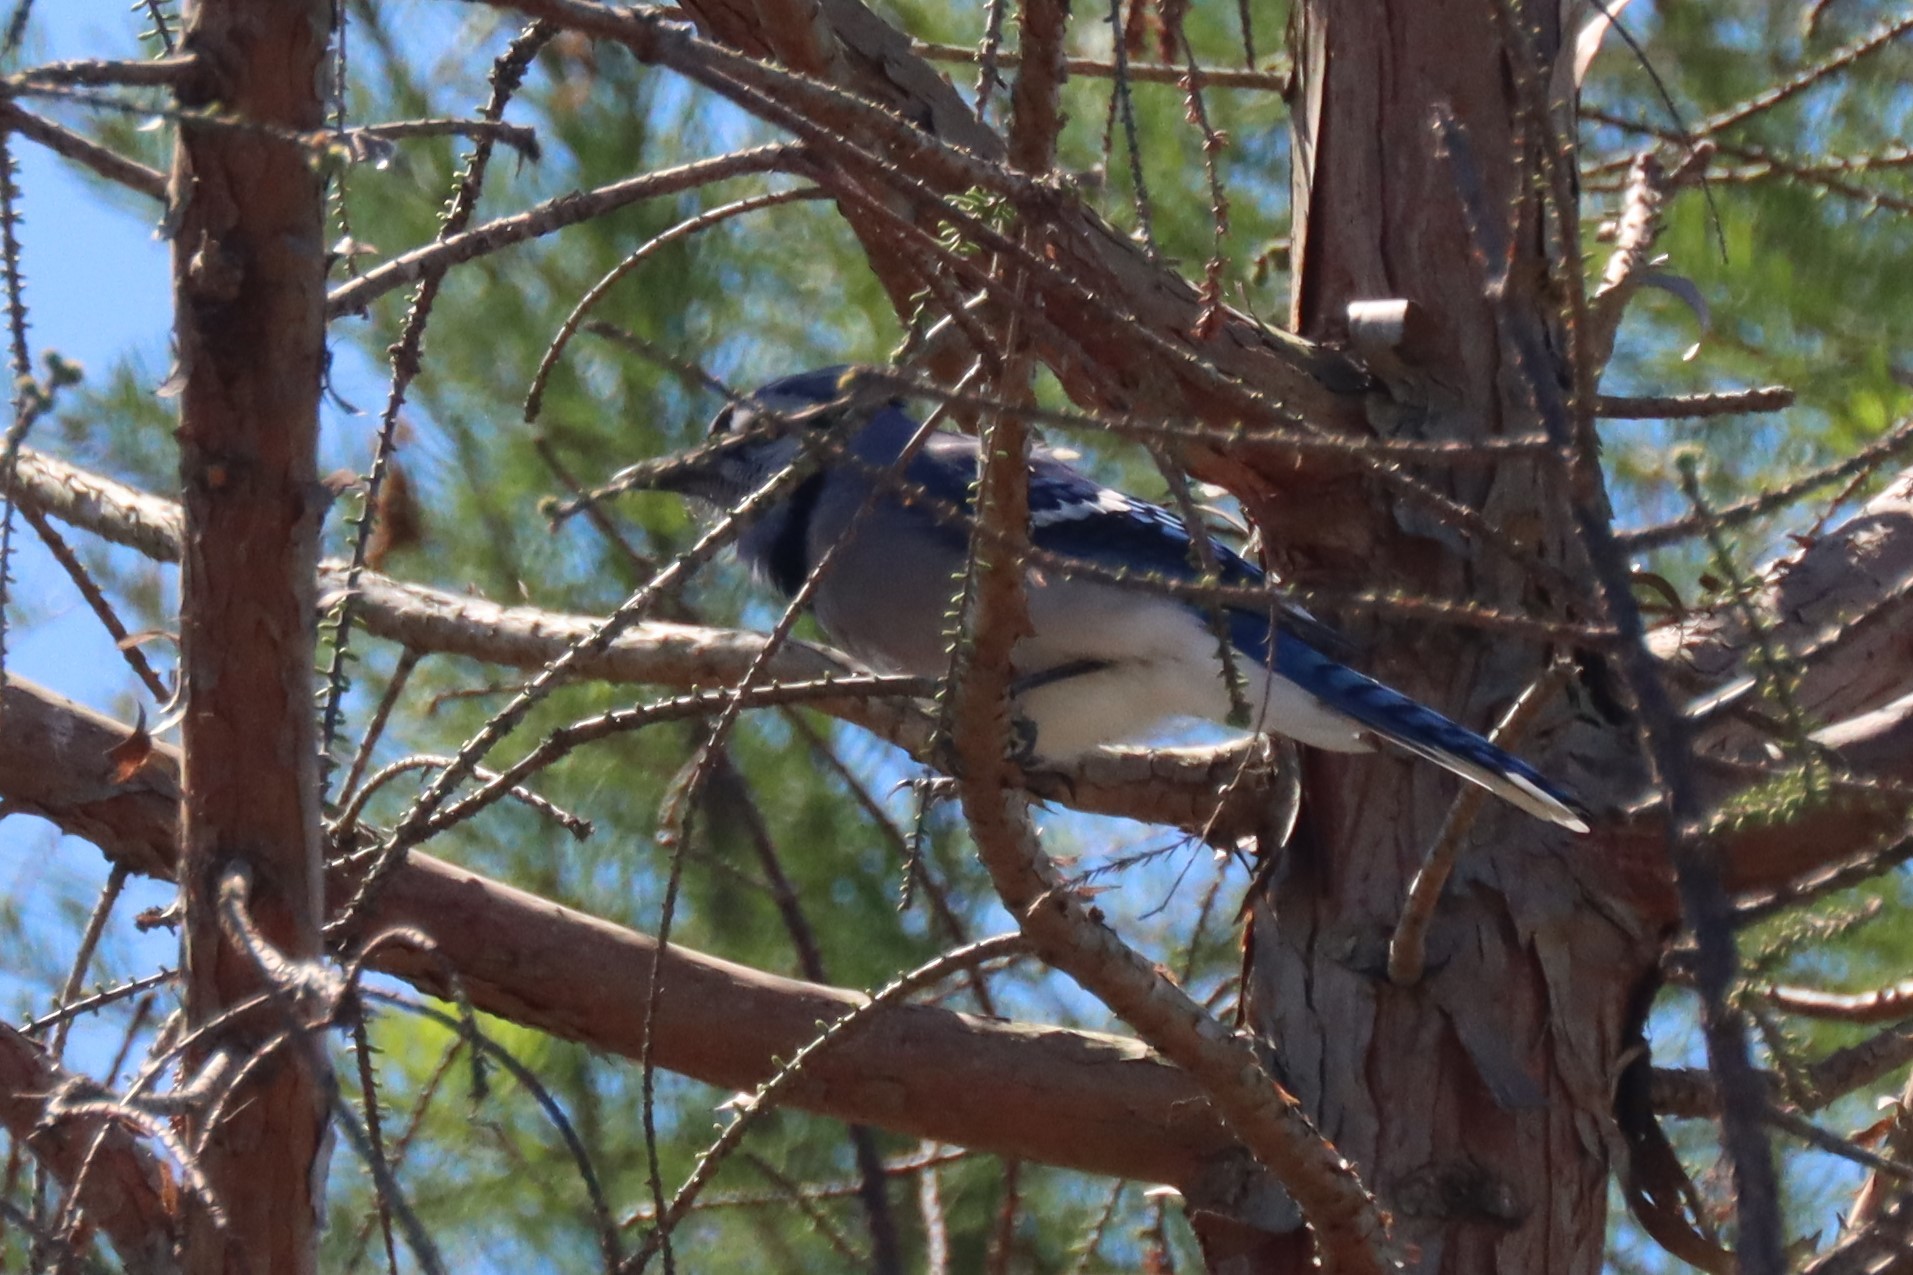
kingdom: Animalia
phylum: Chordata
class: Aves
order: Passeriformes
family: Corvidae
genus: Cyanocitta
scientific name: Cyanocitta cristata
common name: Blue jay
